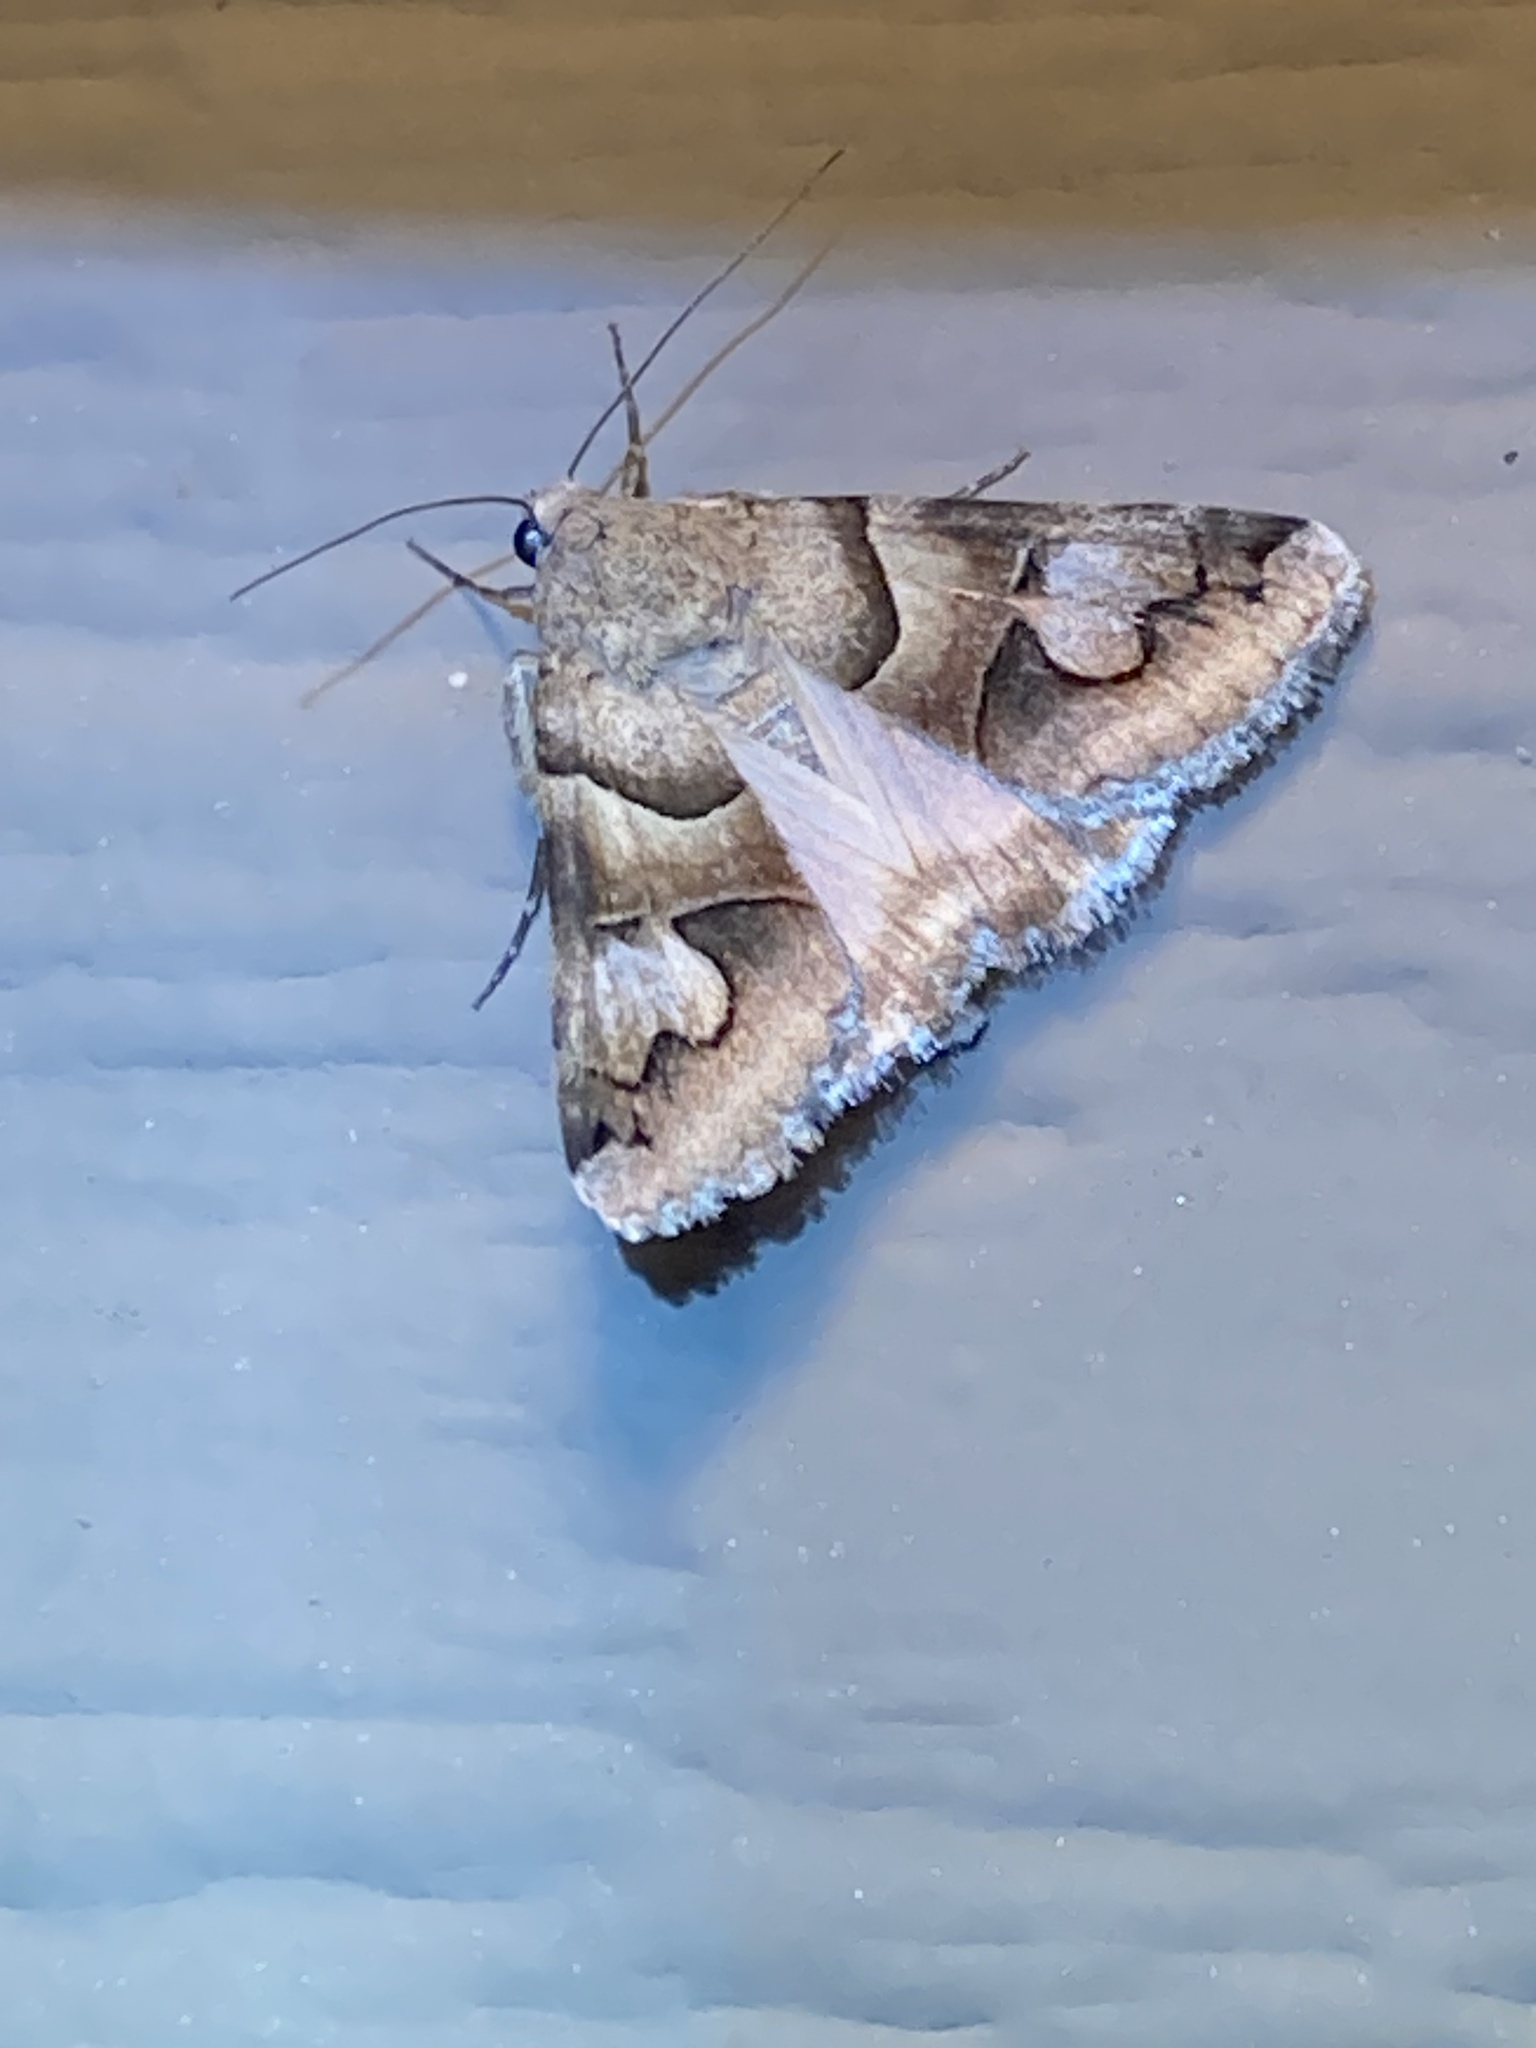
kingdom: Animalia
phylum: Arthropoda
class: Insecta
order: Lepidoptera
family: Erebidae
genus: Drasteria
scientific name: Drasteria pallescens
